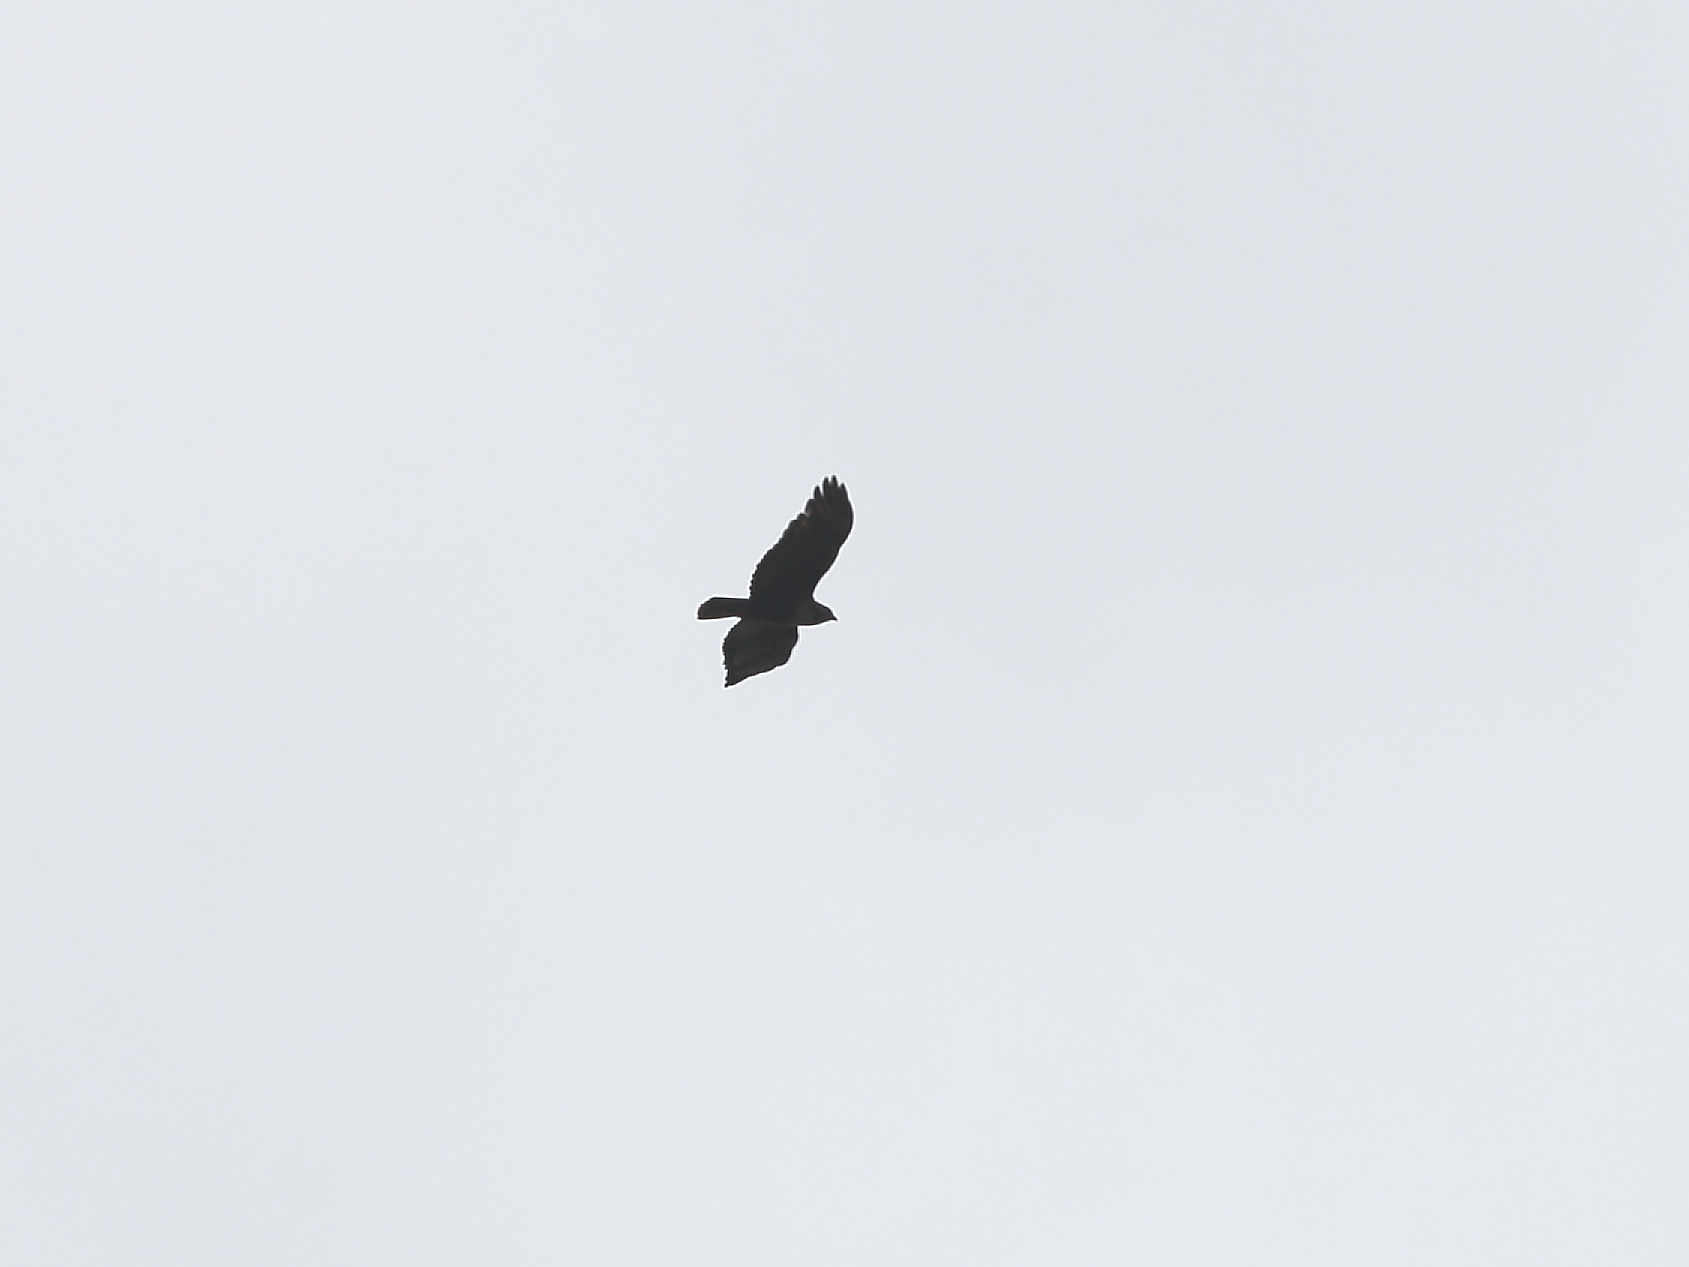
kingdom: Animalia
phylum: Chordata
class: Aves
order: Accipitriformes
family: Accipitridae
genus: Buteo
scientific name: Buteo jamaicensis
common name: Red-tailed hawk
